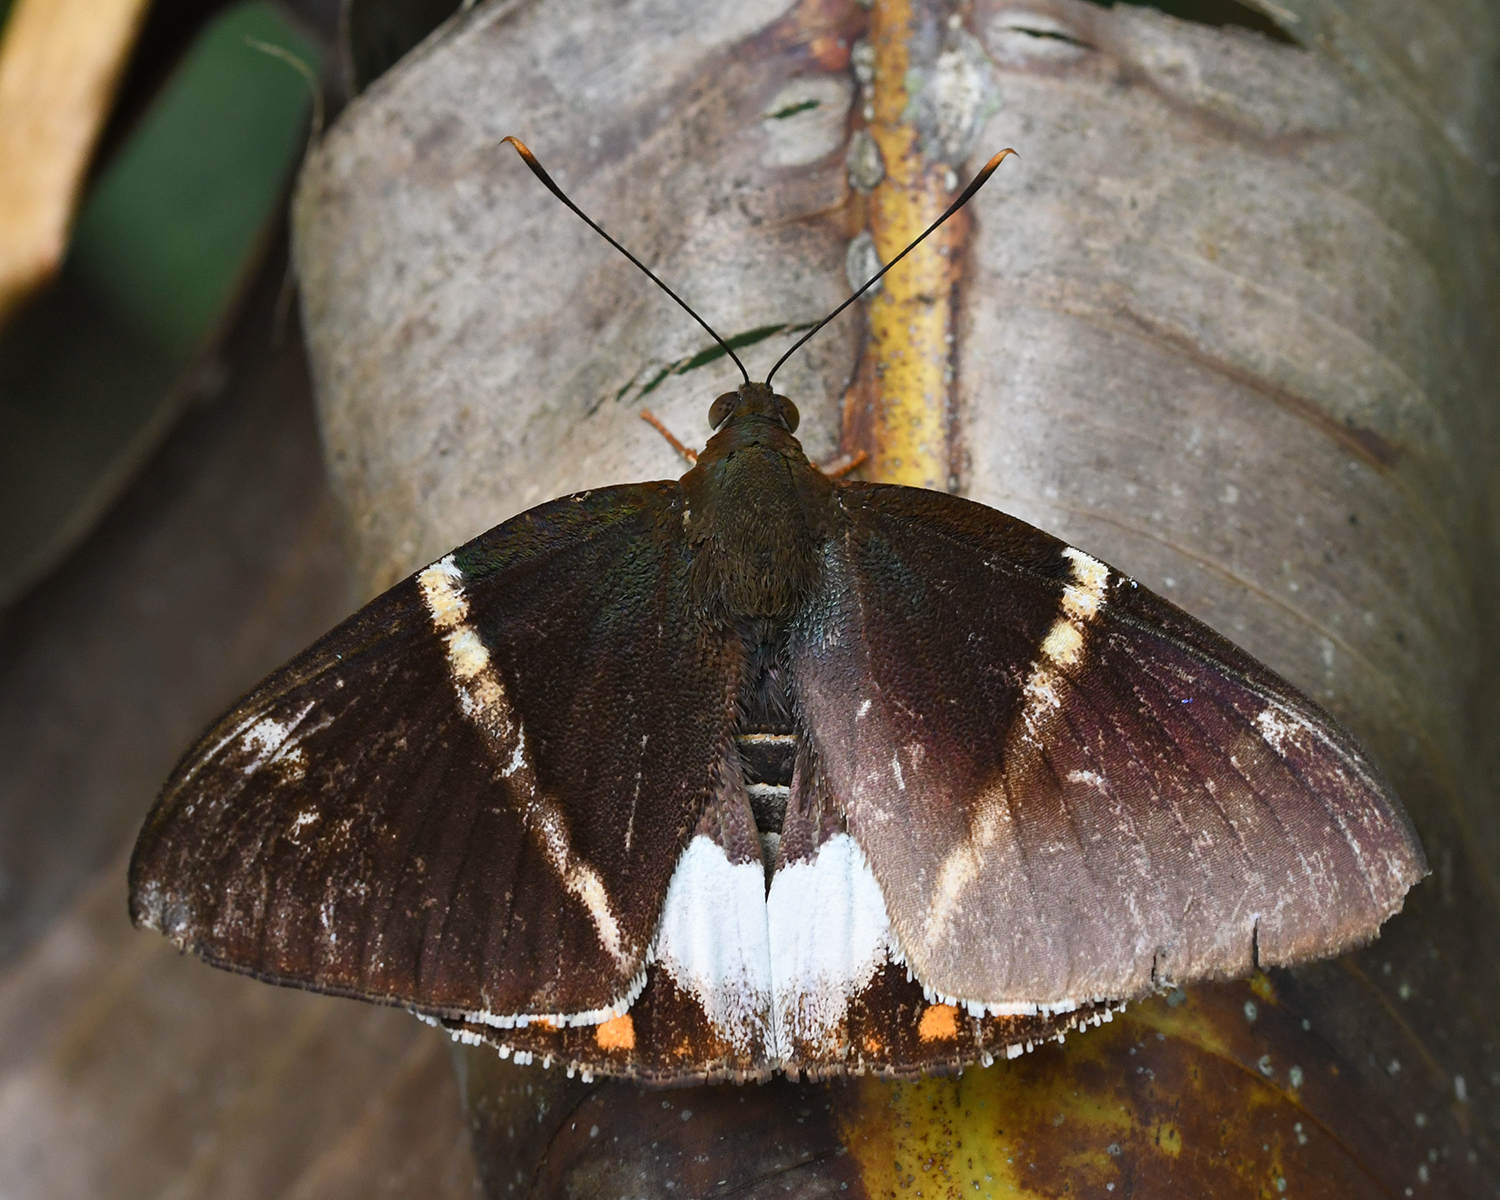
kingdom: Animalia
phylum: Arthropoda
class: Insecta
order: Lepidoptera
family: Castniidae
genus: Castnia
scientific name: Castnia licoides
